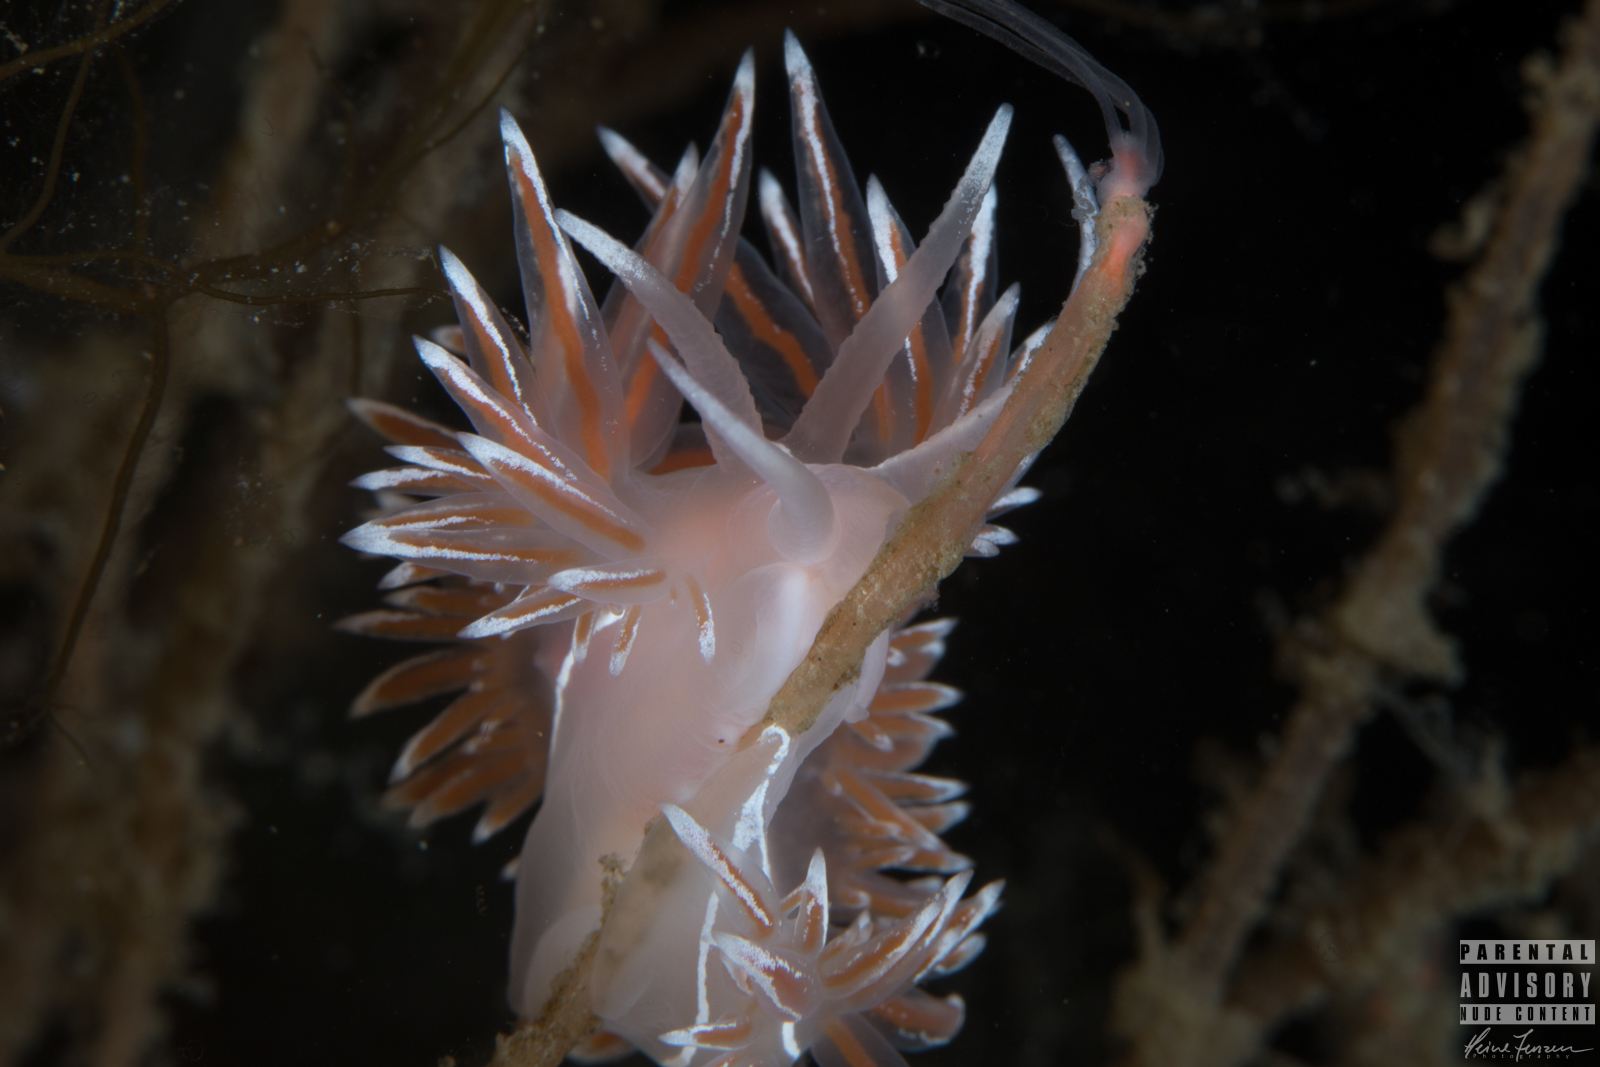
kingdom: Animalia
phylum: Mollusca
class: Gastropoda
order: Nudibranchia
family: Coryphellidae
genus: Coryphella
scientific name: Coryphella lineata
